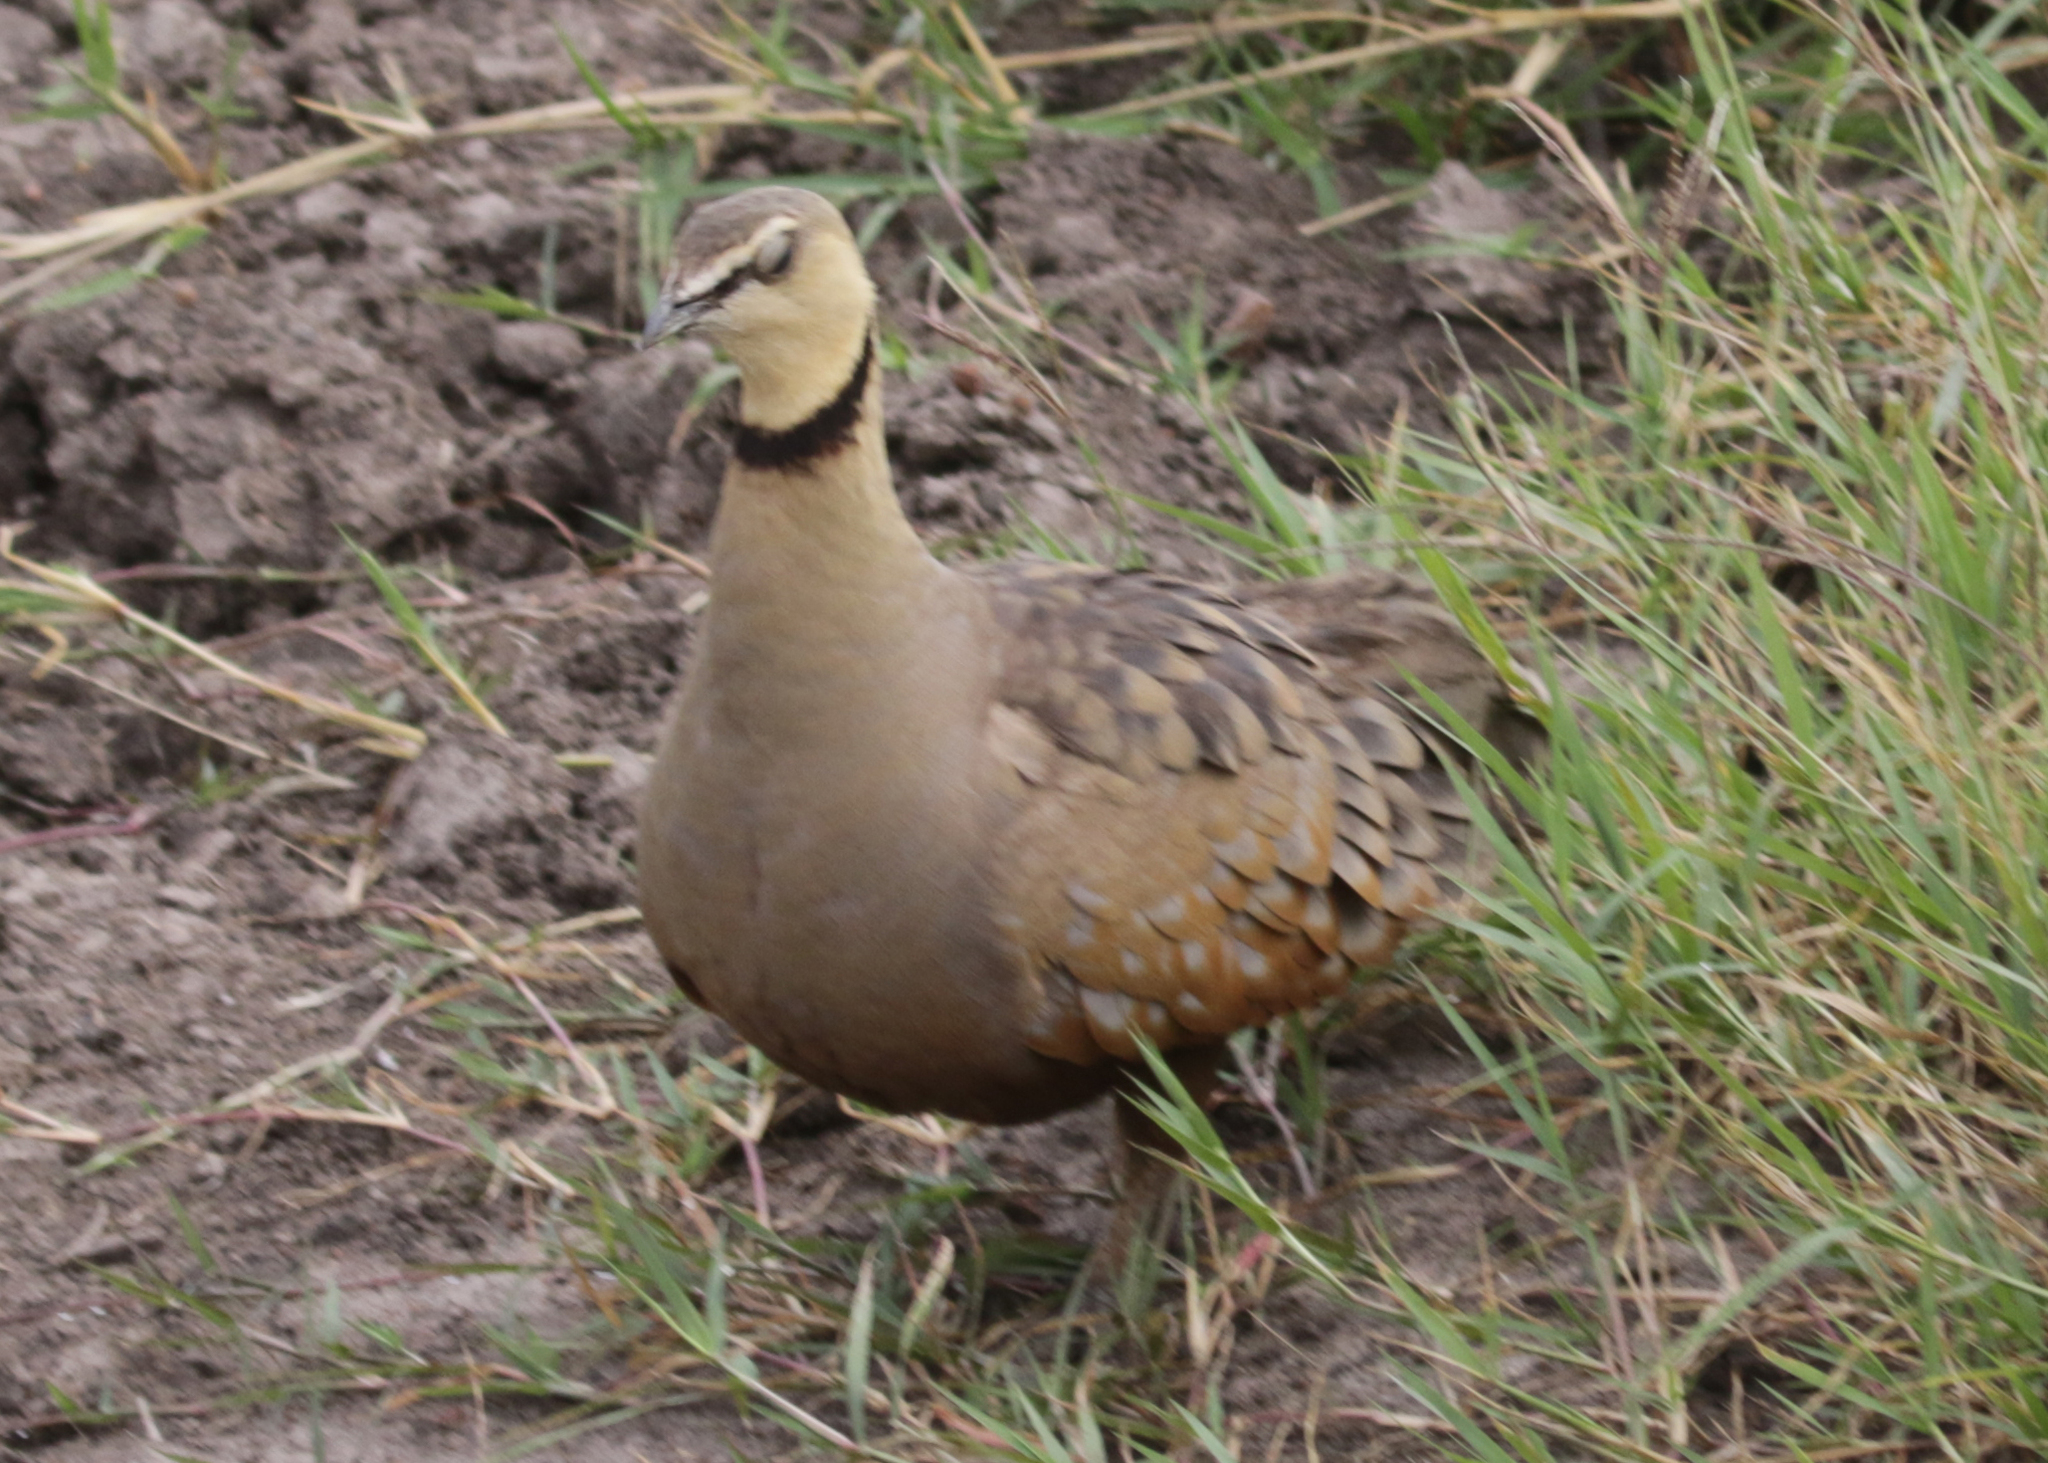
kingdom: Animalia
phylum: Chordata
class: Aves
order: Pteroclidiformes
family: Pteroclididae
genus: Pterocles
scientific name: Pterocles gutturalis
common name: Yellow-throated sandgrouse
